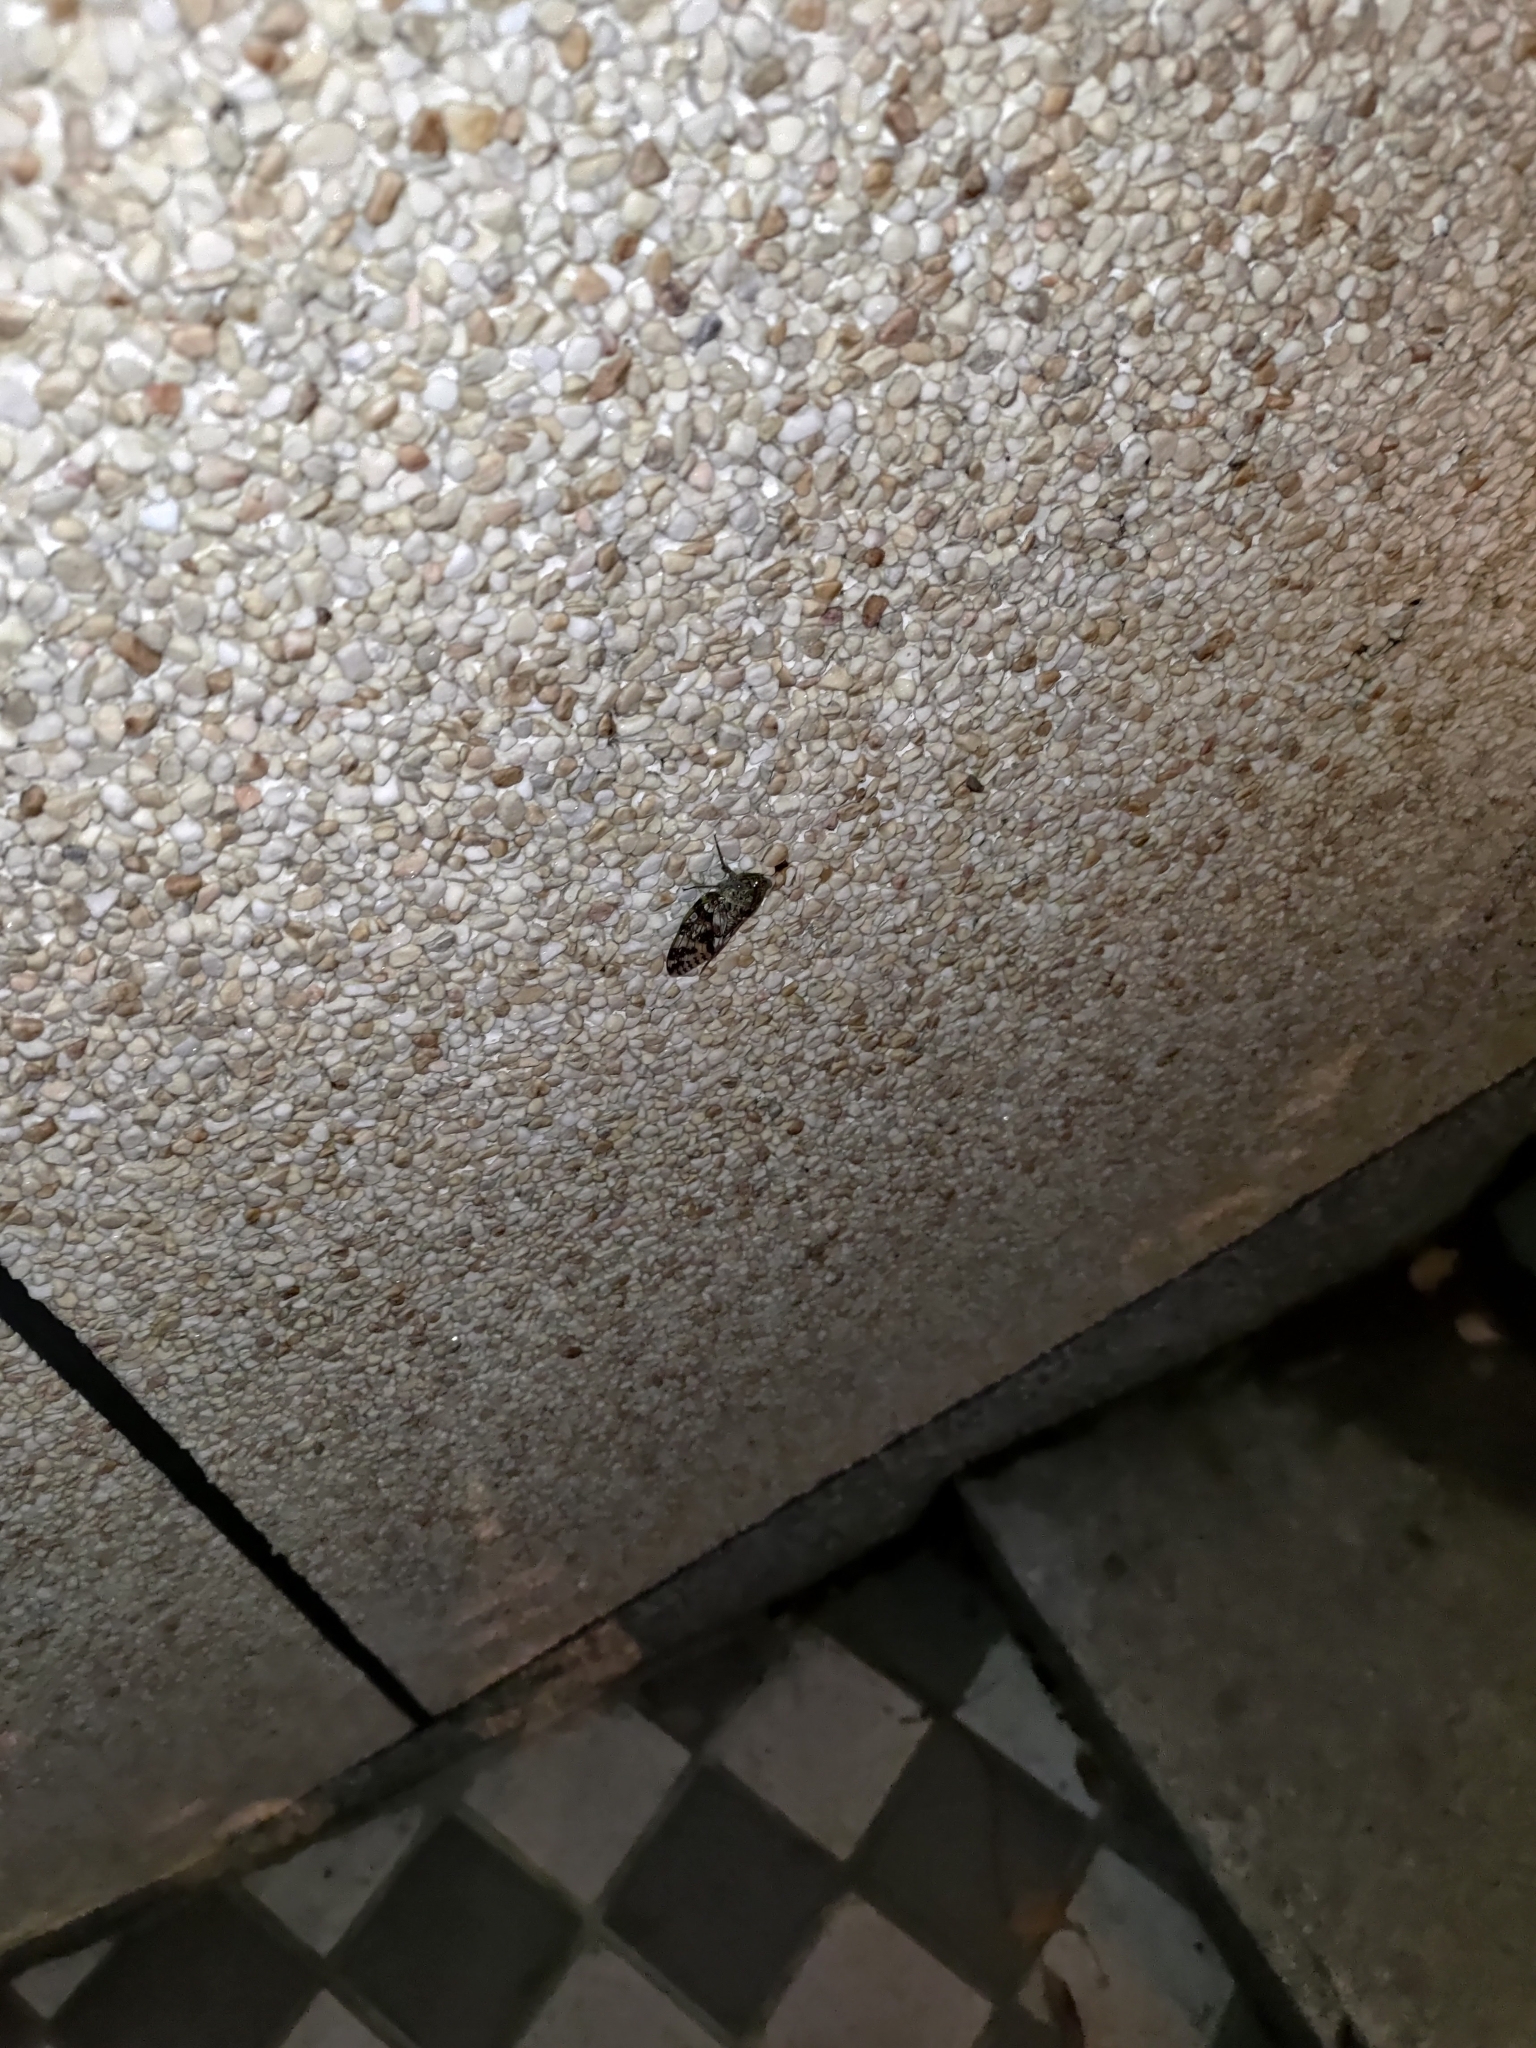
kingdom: Animalia
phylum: Arthropoda
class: Insecta
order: Hemiptera
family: Cicadidae
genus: Platypleura
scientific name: Platypleura takasagona
